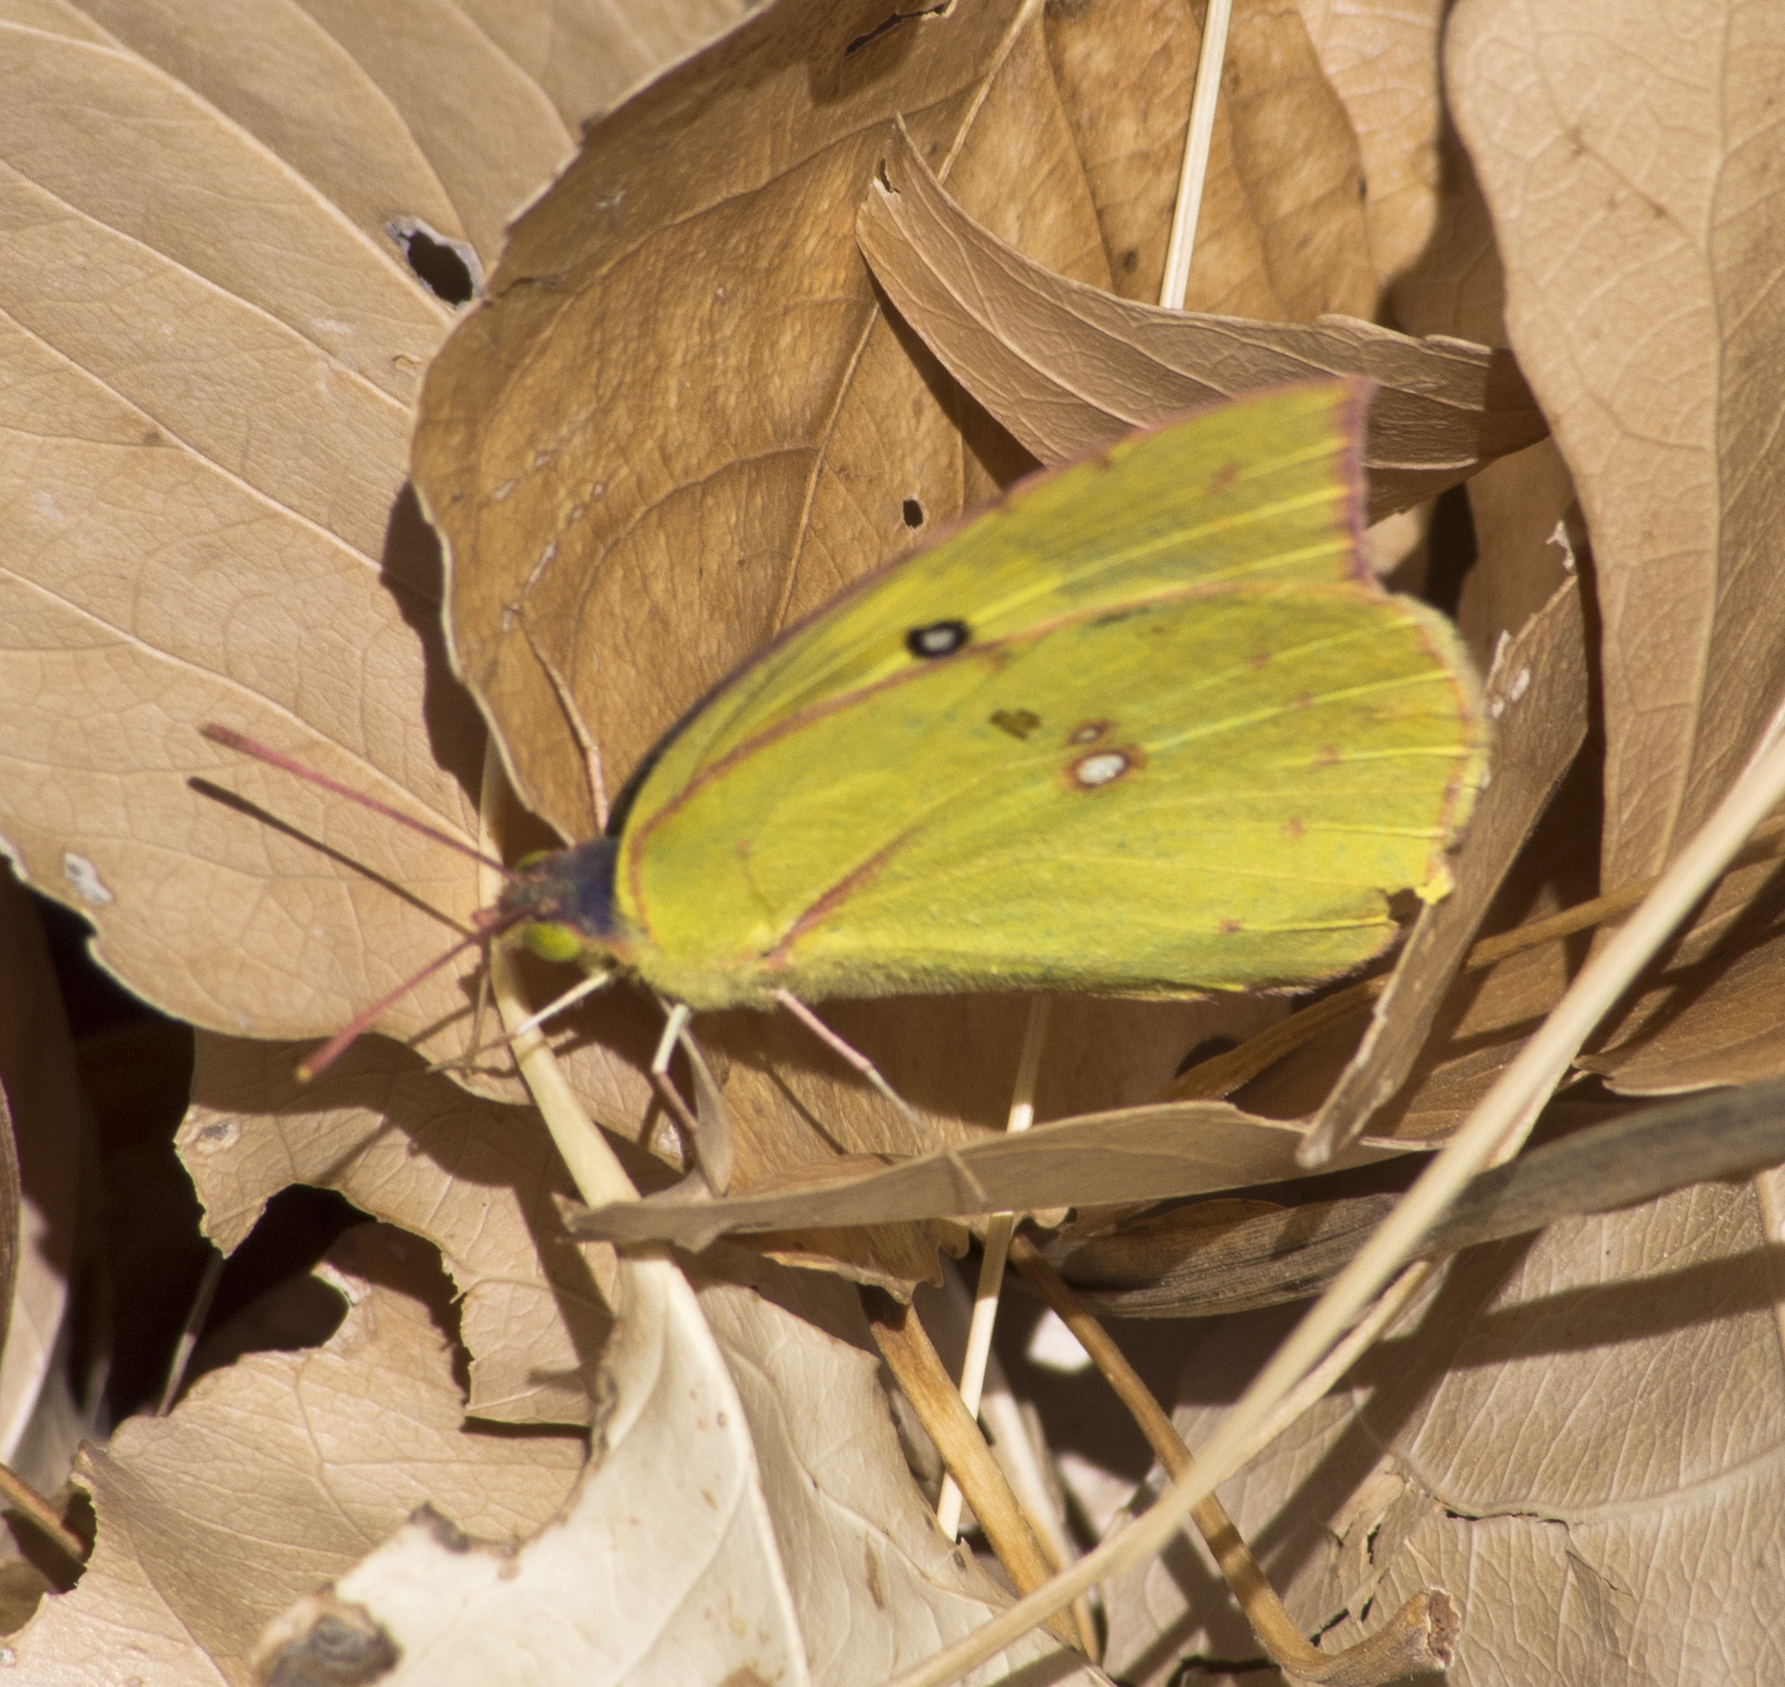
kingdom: Animalia
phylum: Arthropoda
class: Insecta
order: Lepidoptera
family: Pieridae
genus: Zerene
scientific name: Zerene cesonia
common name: Southern dogface
